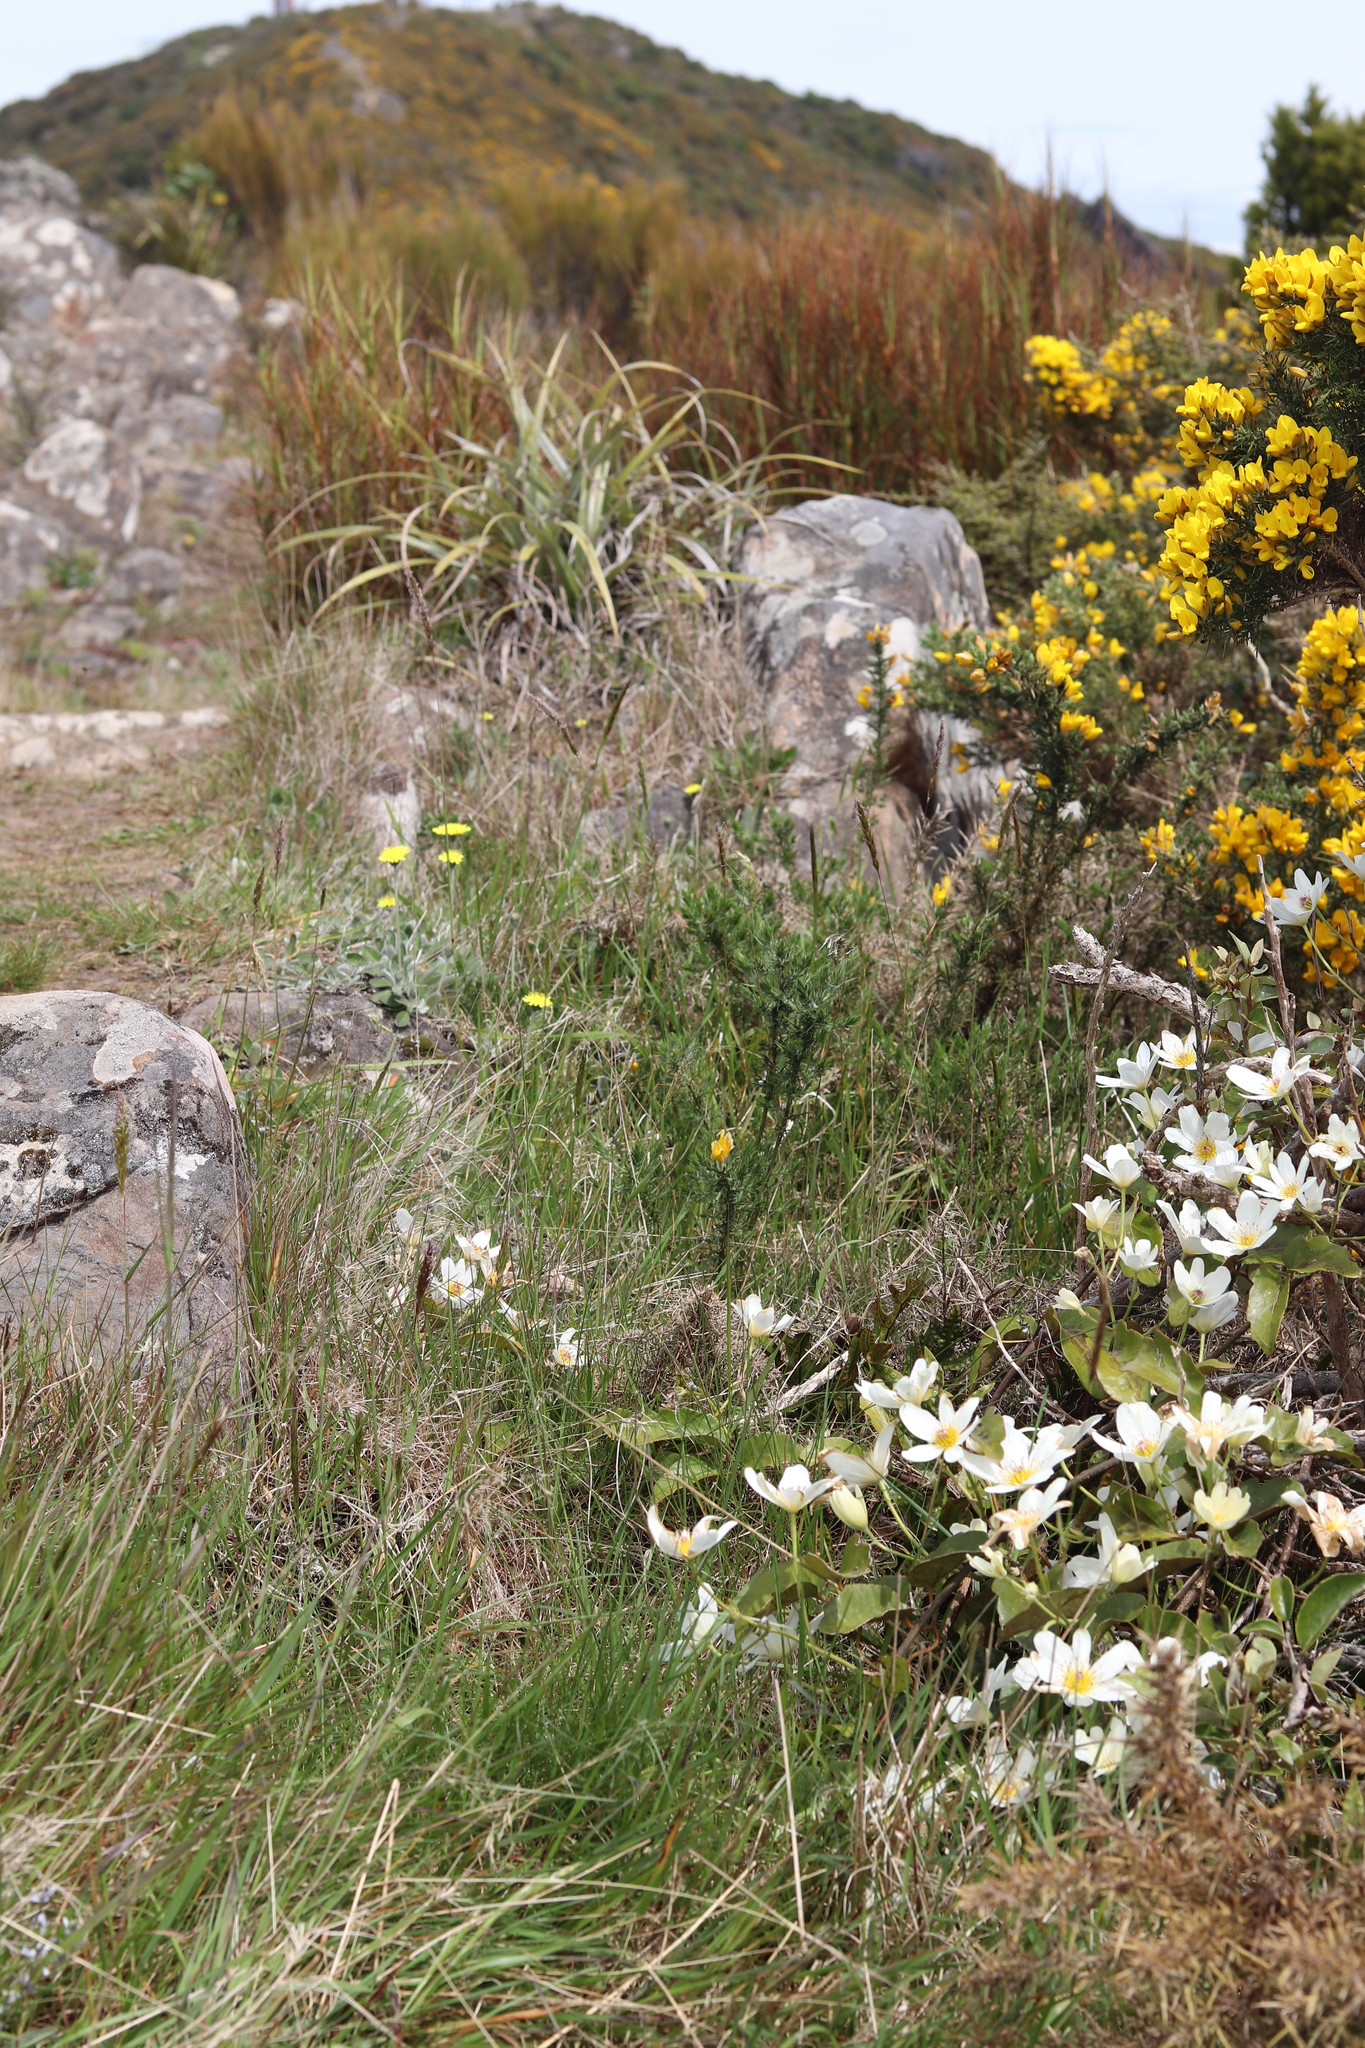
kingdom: Plantae
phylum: Tracheophyta
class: Magnoliopsida
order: Ranunculales
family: Ranunculaceae
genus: Clematis
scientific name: Clematis paniculata
